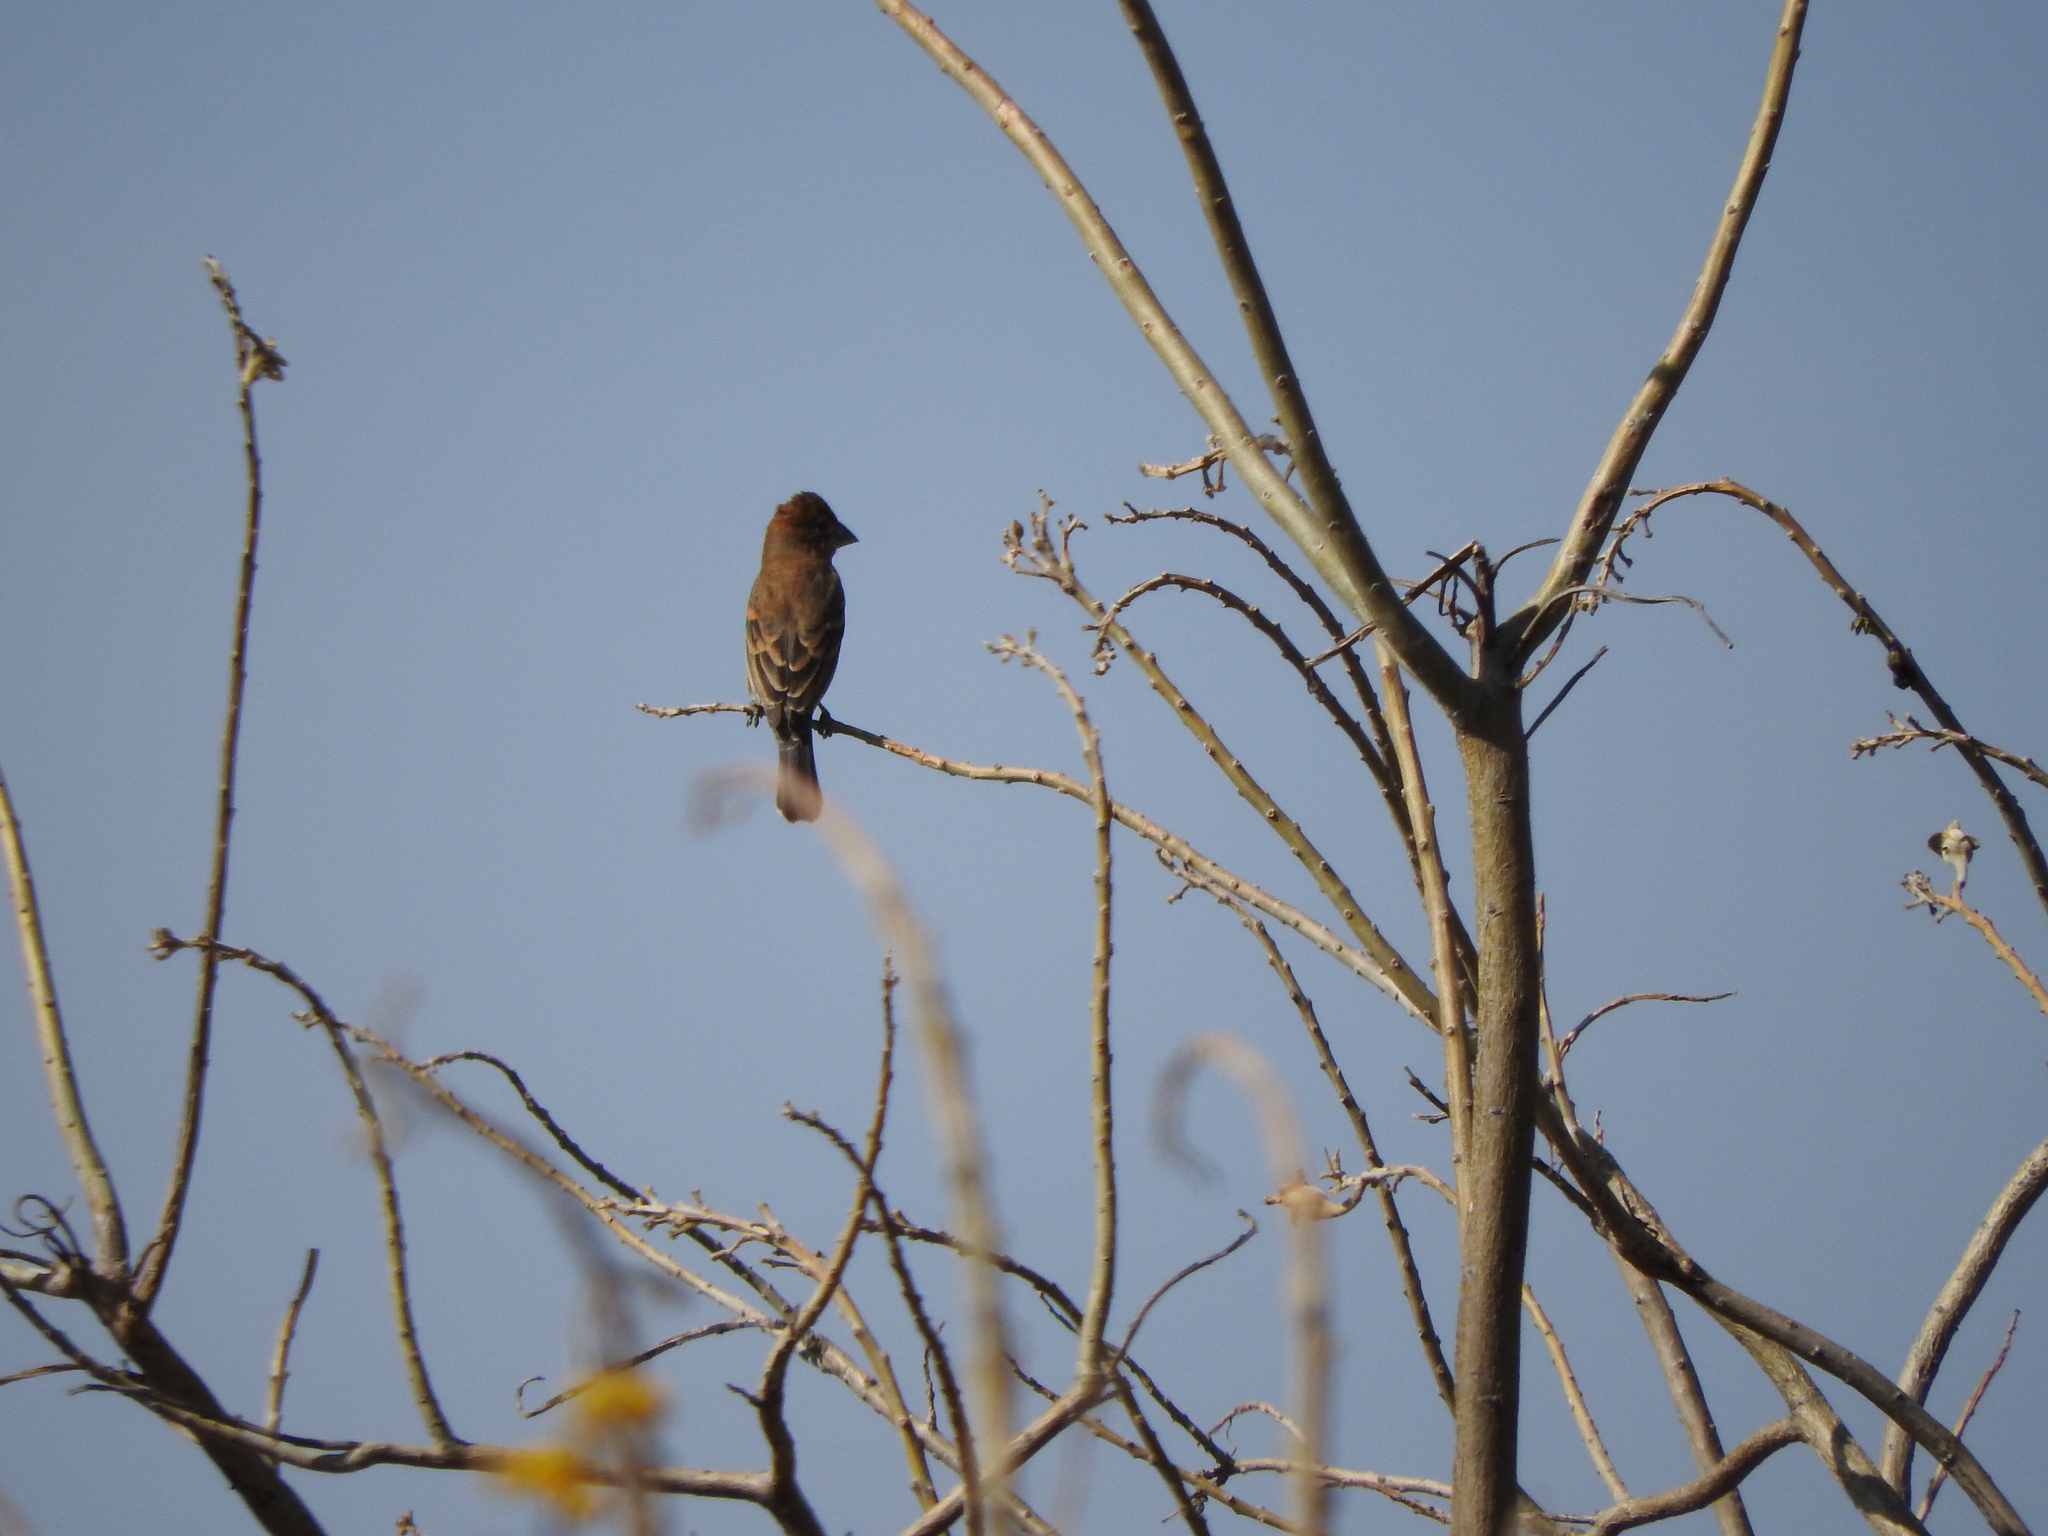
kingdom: Animalia
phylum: Chordata
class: Aves
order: Passeriformes
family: Cardinalidae
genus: Passerina
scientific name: Passerina caerulea
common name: Blue grosbeak
